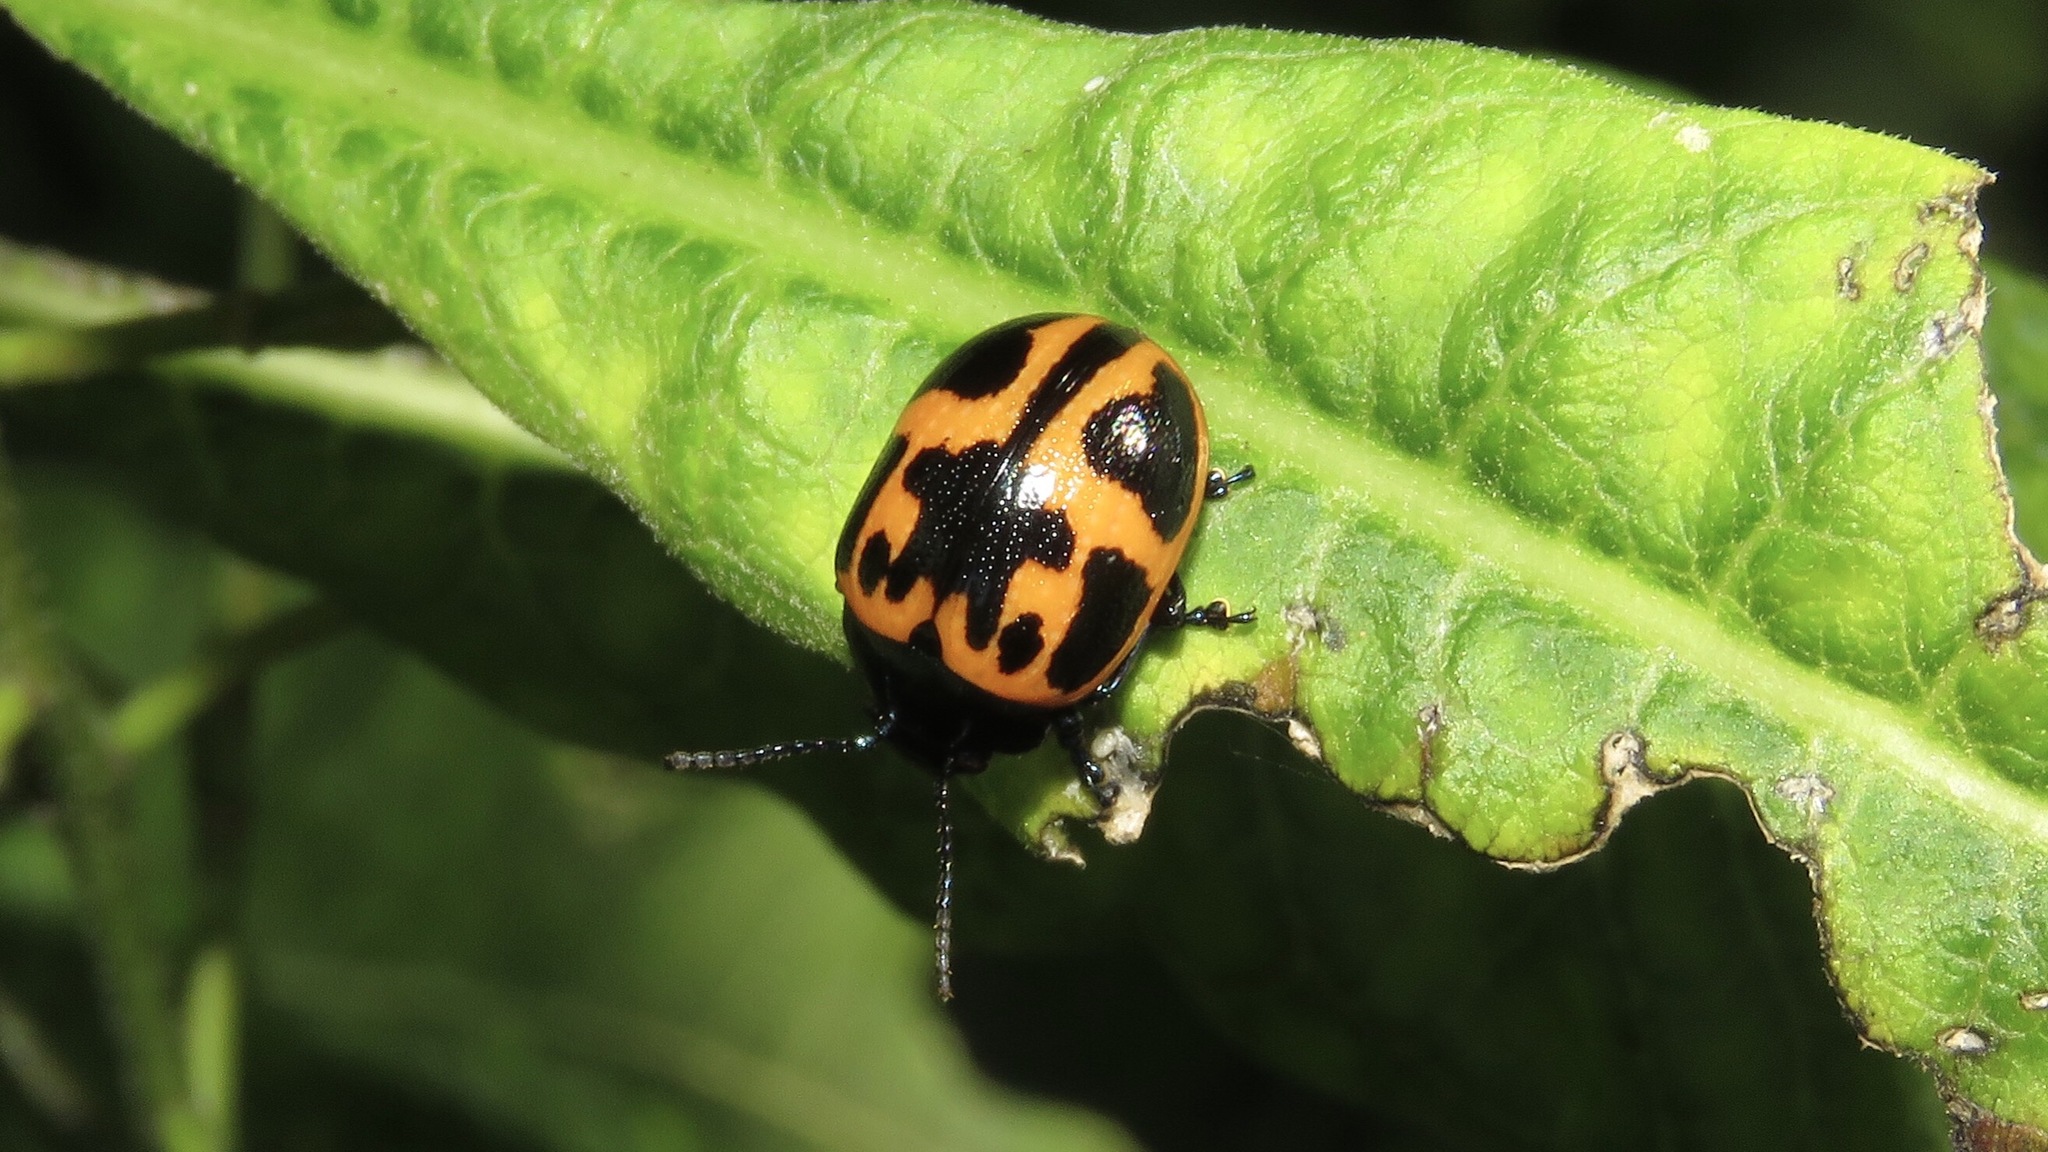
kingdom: Animalia
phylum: Arthropoda
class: Insecta
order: Coleoptera
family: Chrysomelidae
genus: Labidomera
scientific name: Labidomera clivicollis
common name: Swamp milkweed leaf beetle
